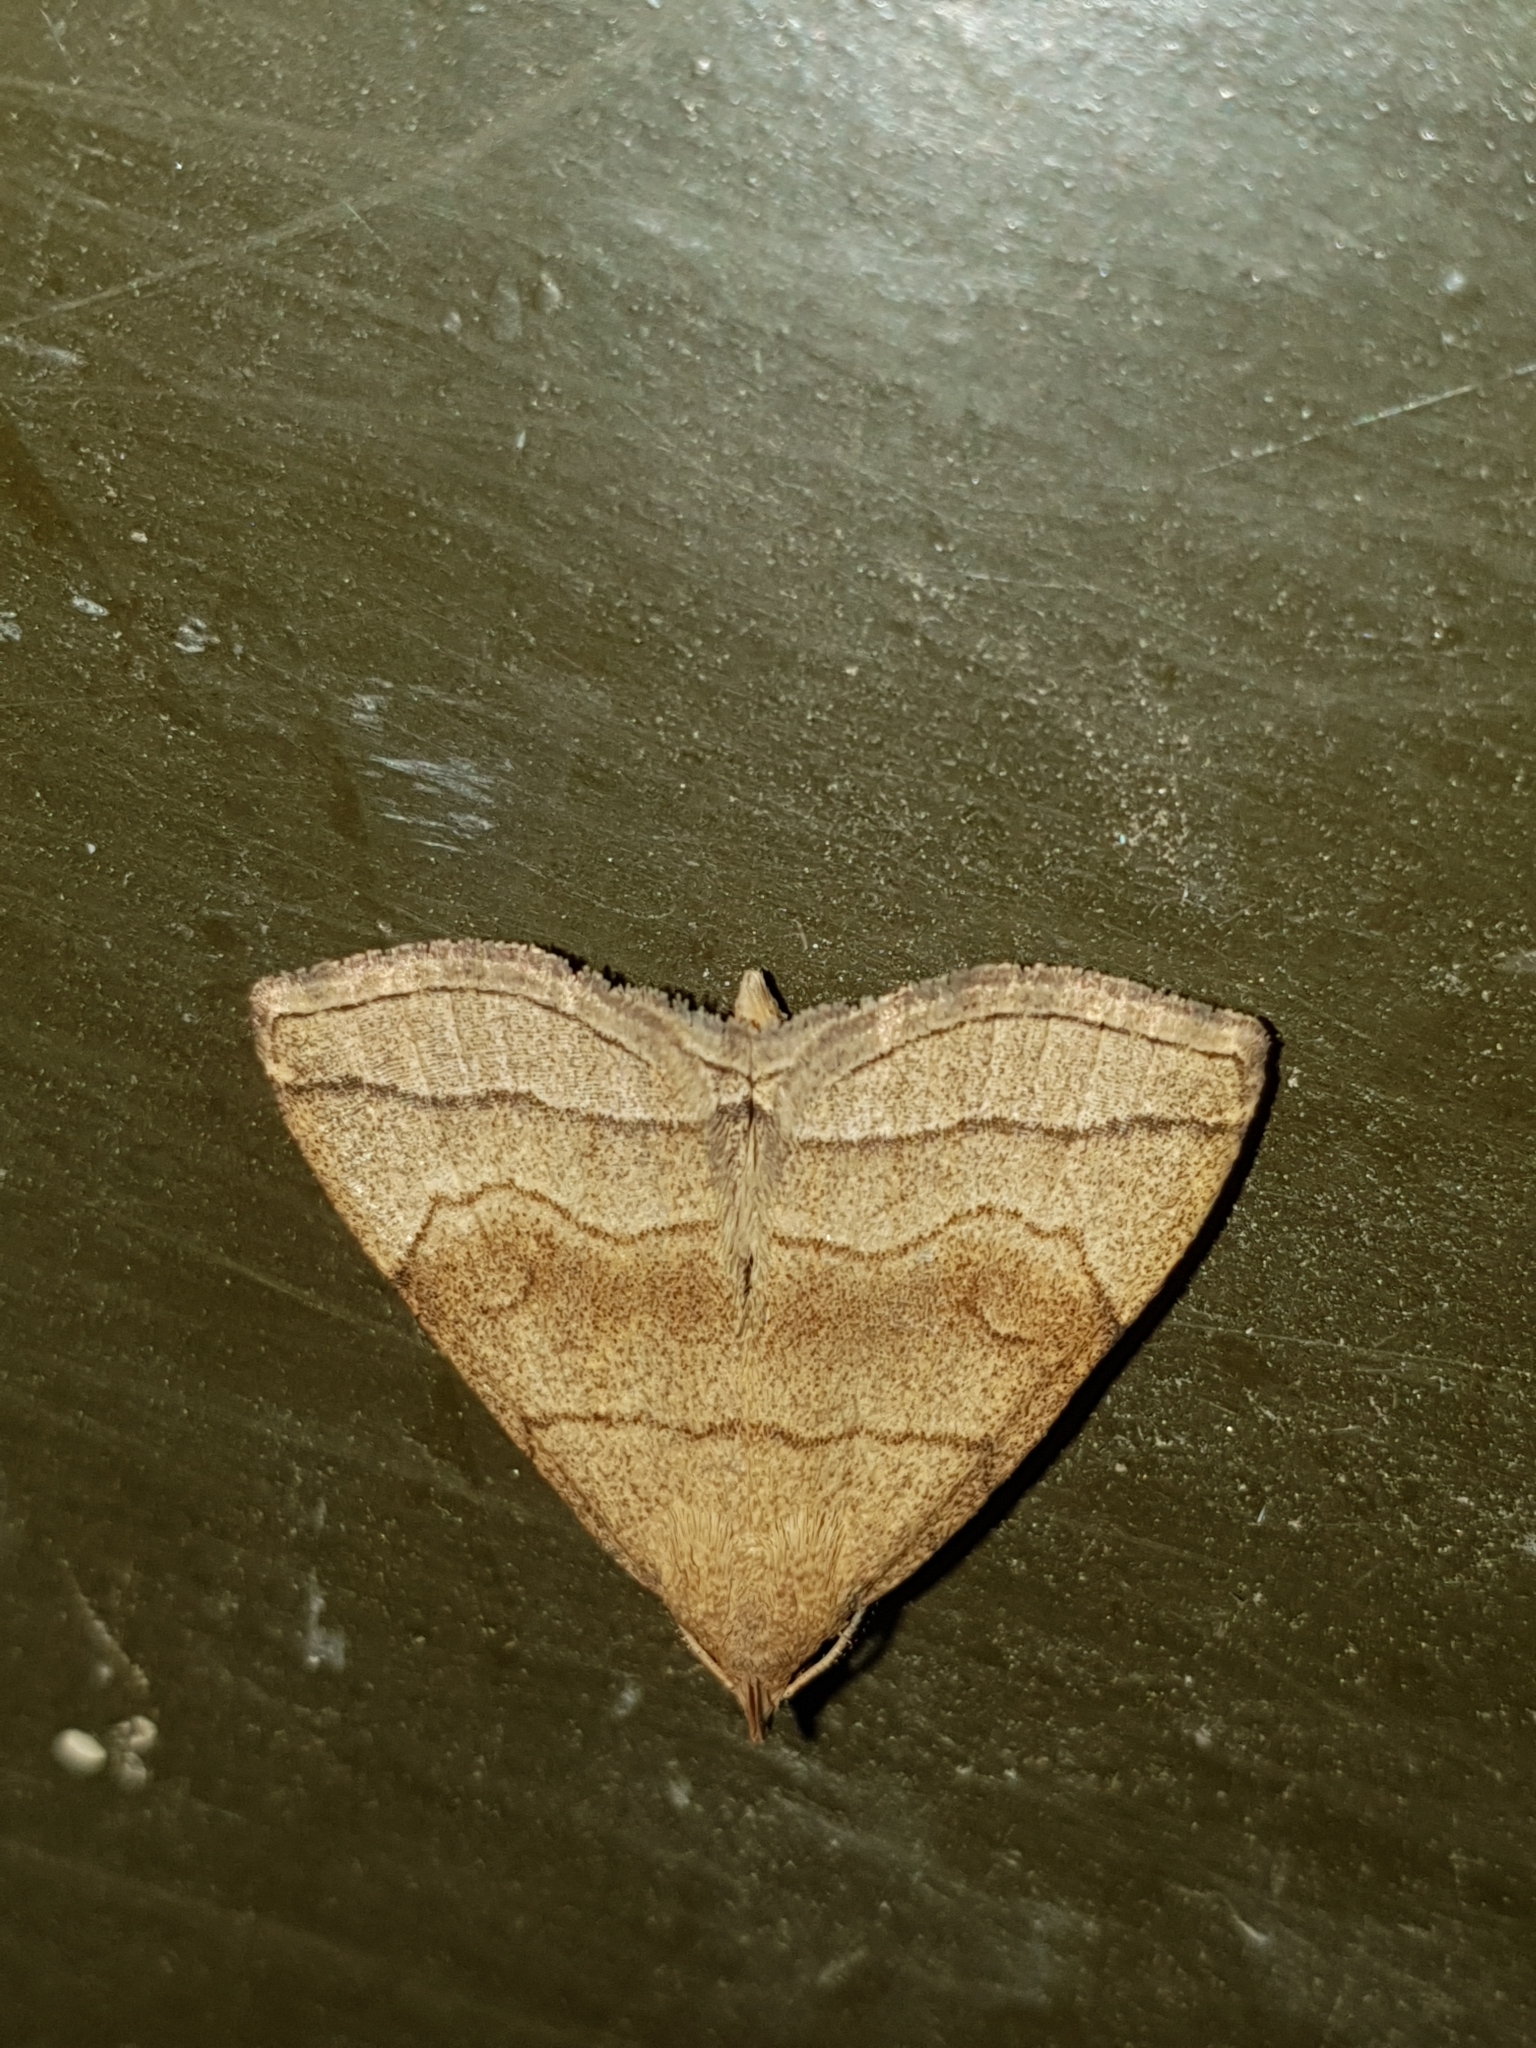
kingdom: Animalia
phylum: Arthropoda
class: Insecta
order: Lepidoptera
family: Erebidae
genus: Herminia
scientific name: Herminia tarsicrinalis
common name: Shaded fan-foot
